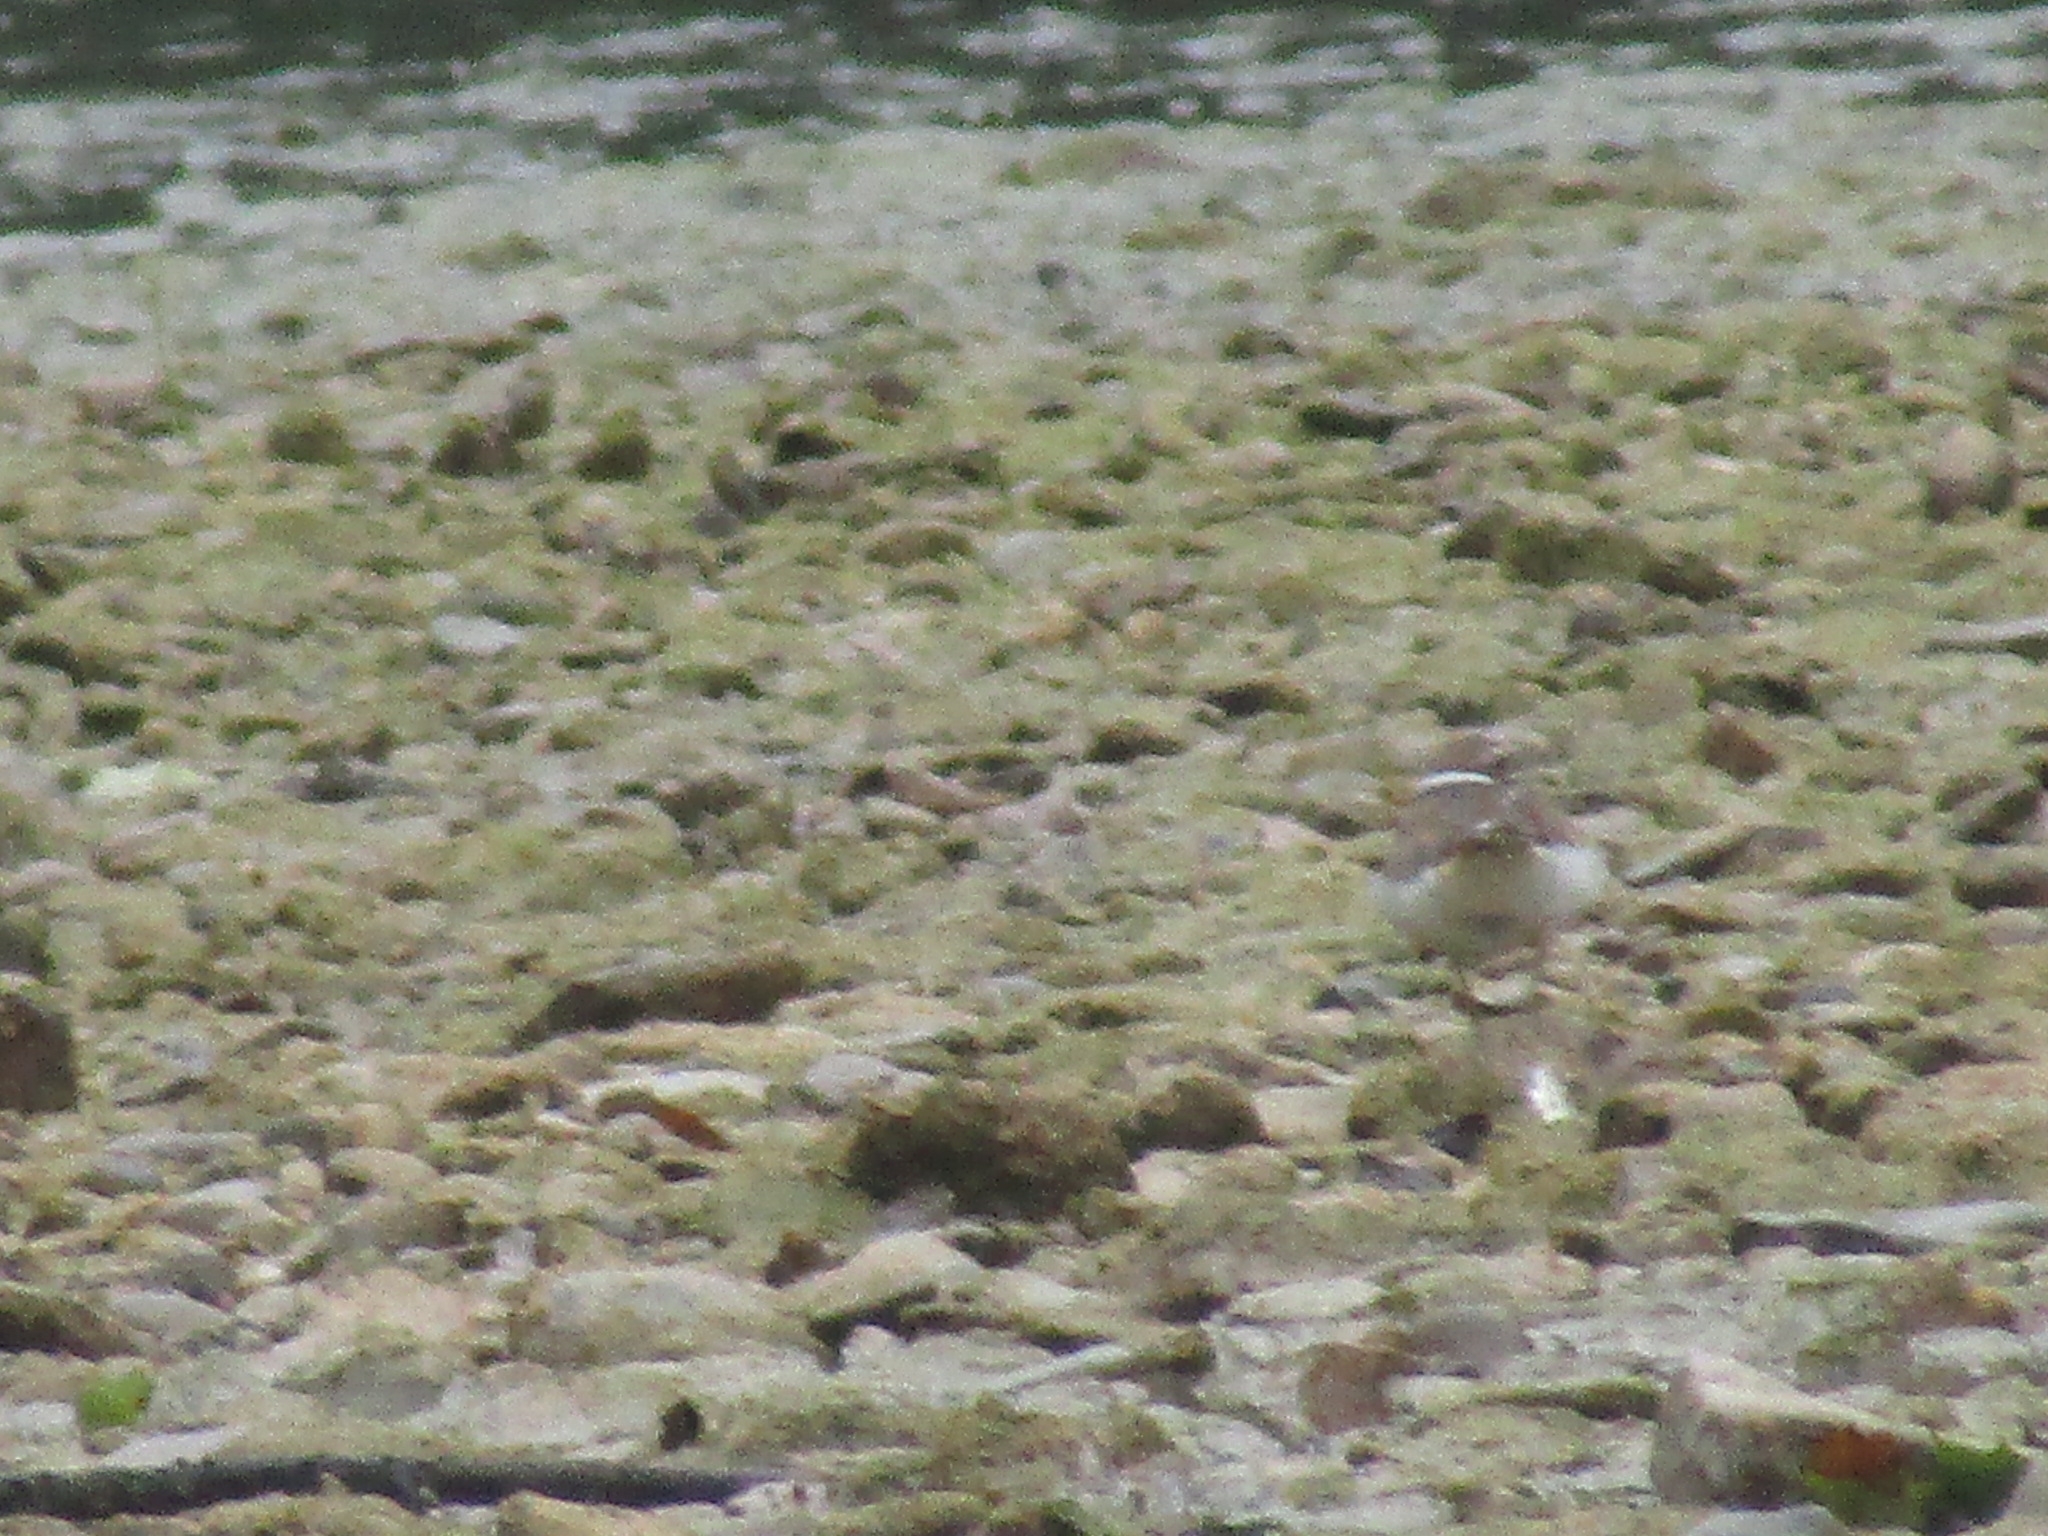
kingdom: Animalia
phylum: Chordata
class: Aves
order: Charadriiformes
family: Charadriidae
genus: Charadrius
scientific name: Charadrius vociferus
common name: Killdeer
